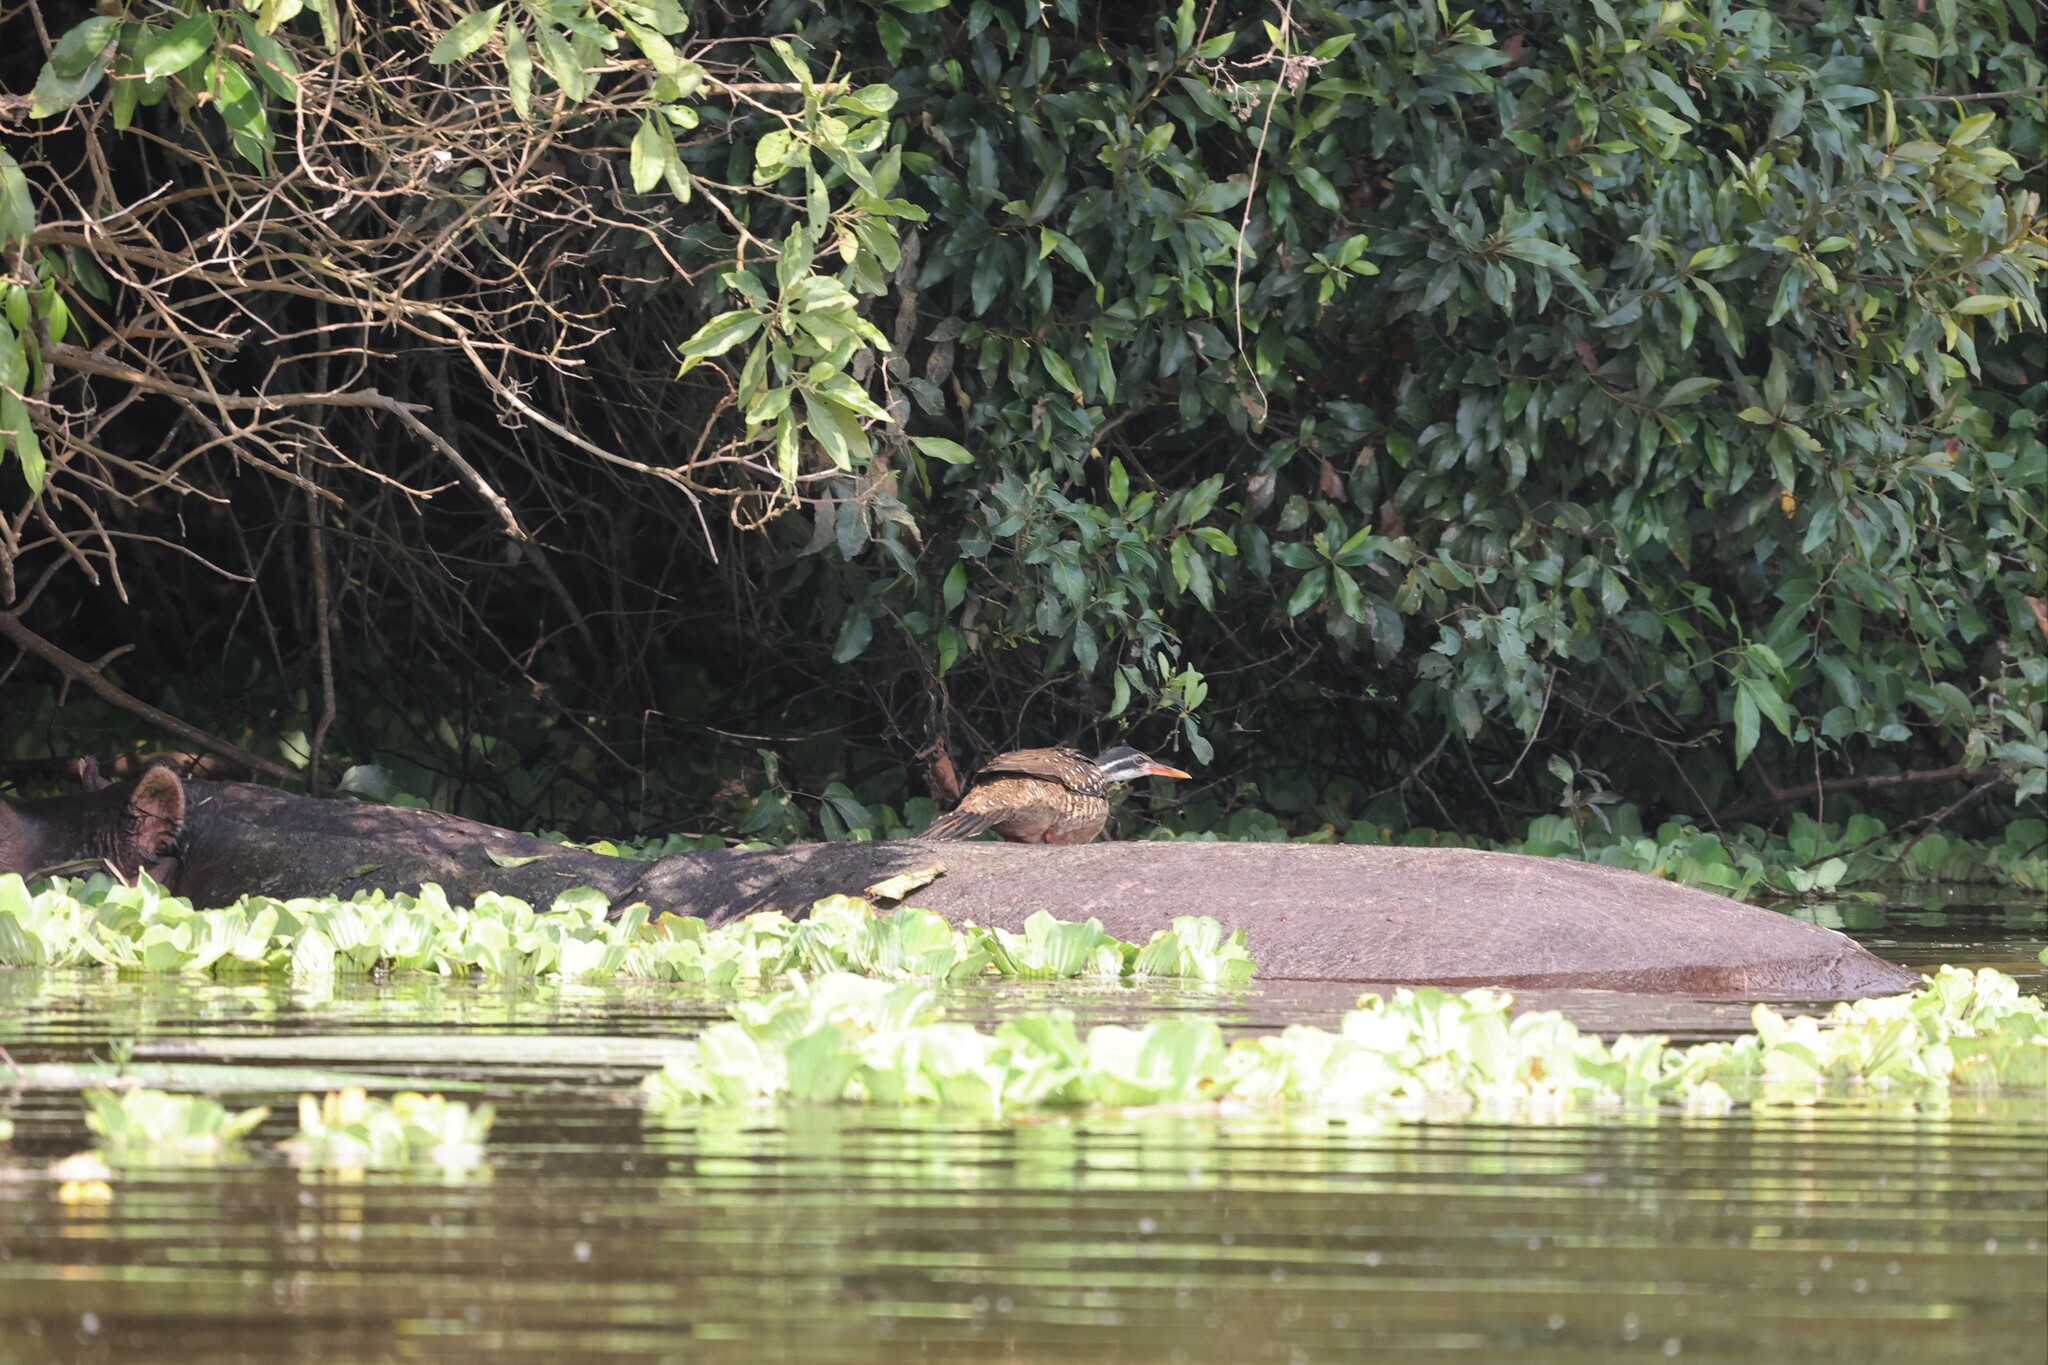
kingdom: Animalia
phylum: Chordata
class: Aves
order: Gruiformes
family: Heliornithidae
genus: Podica
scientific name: Podica senegalensis
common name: African finfoot
